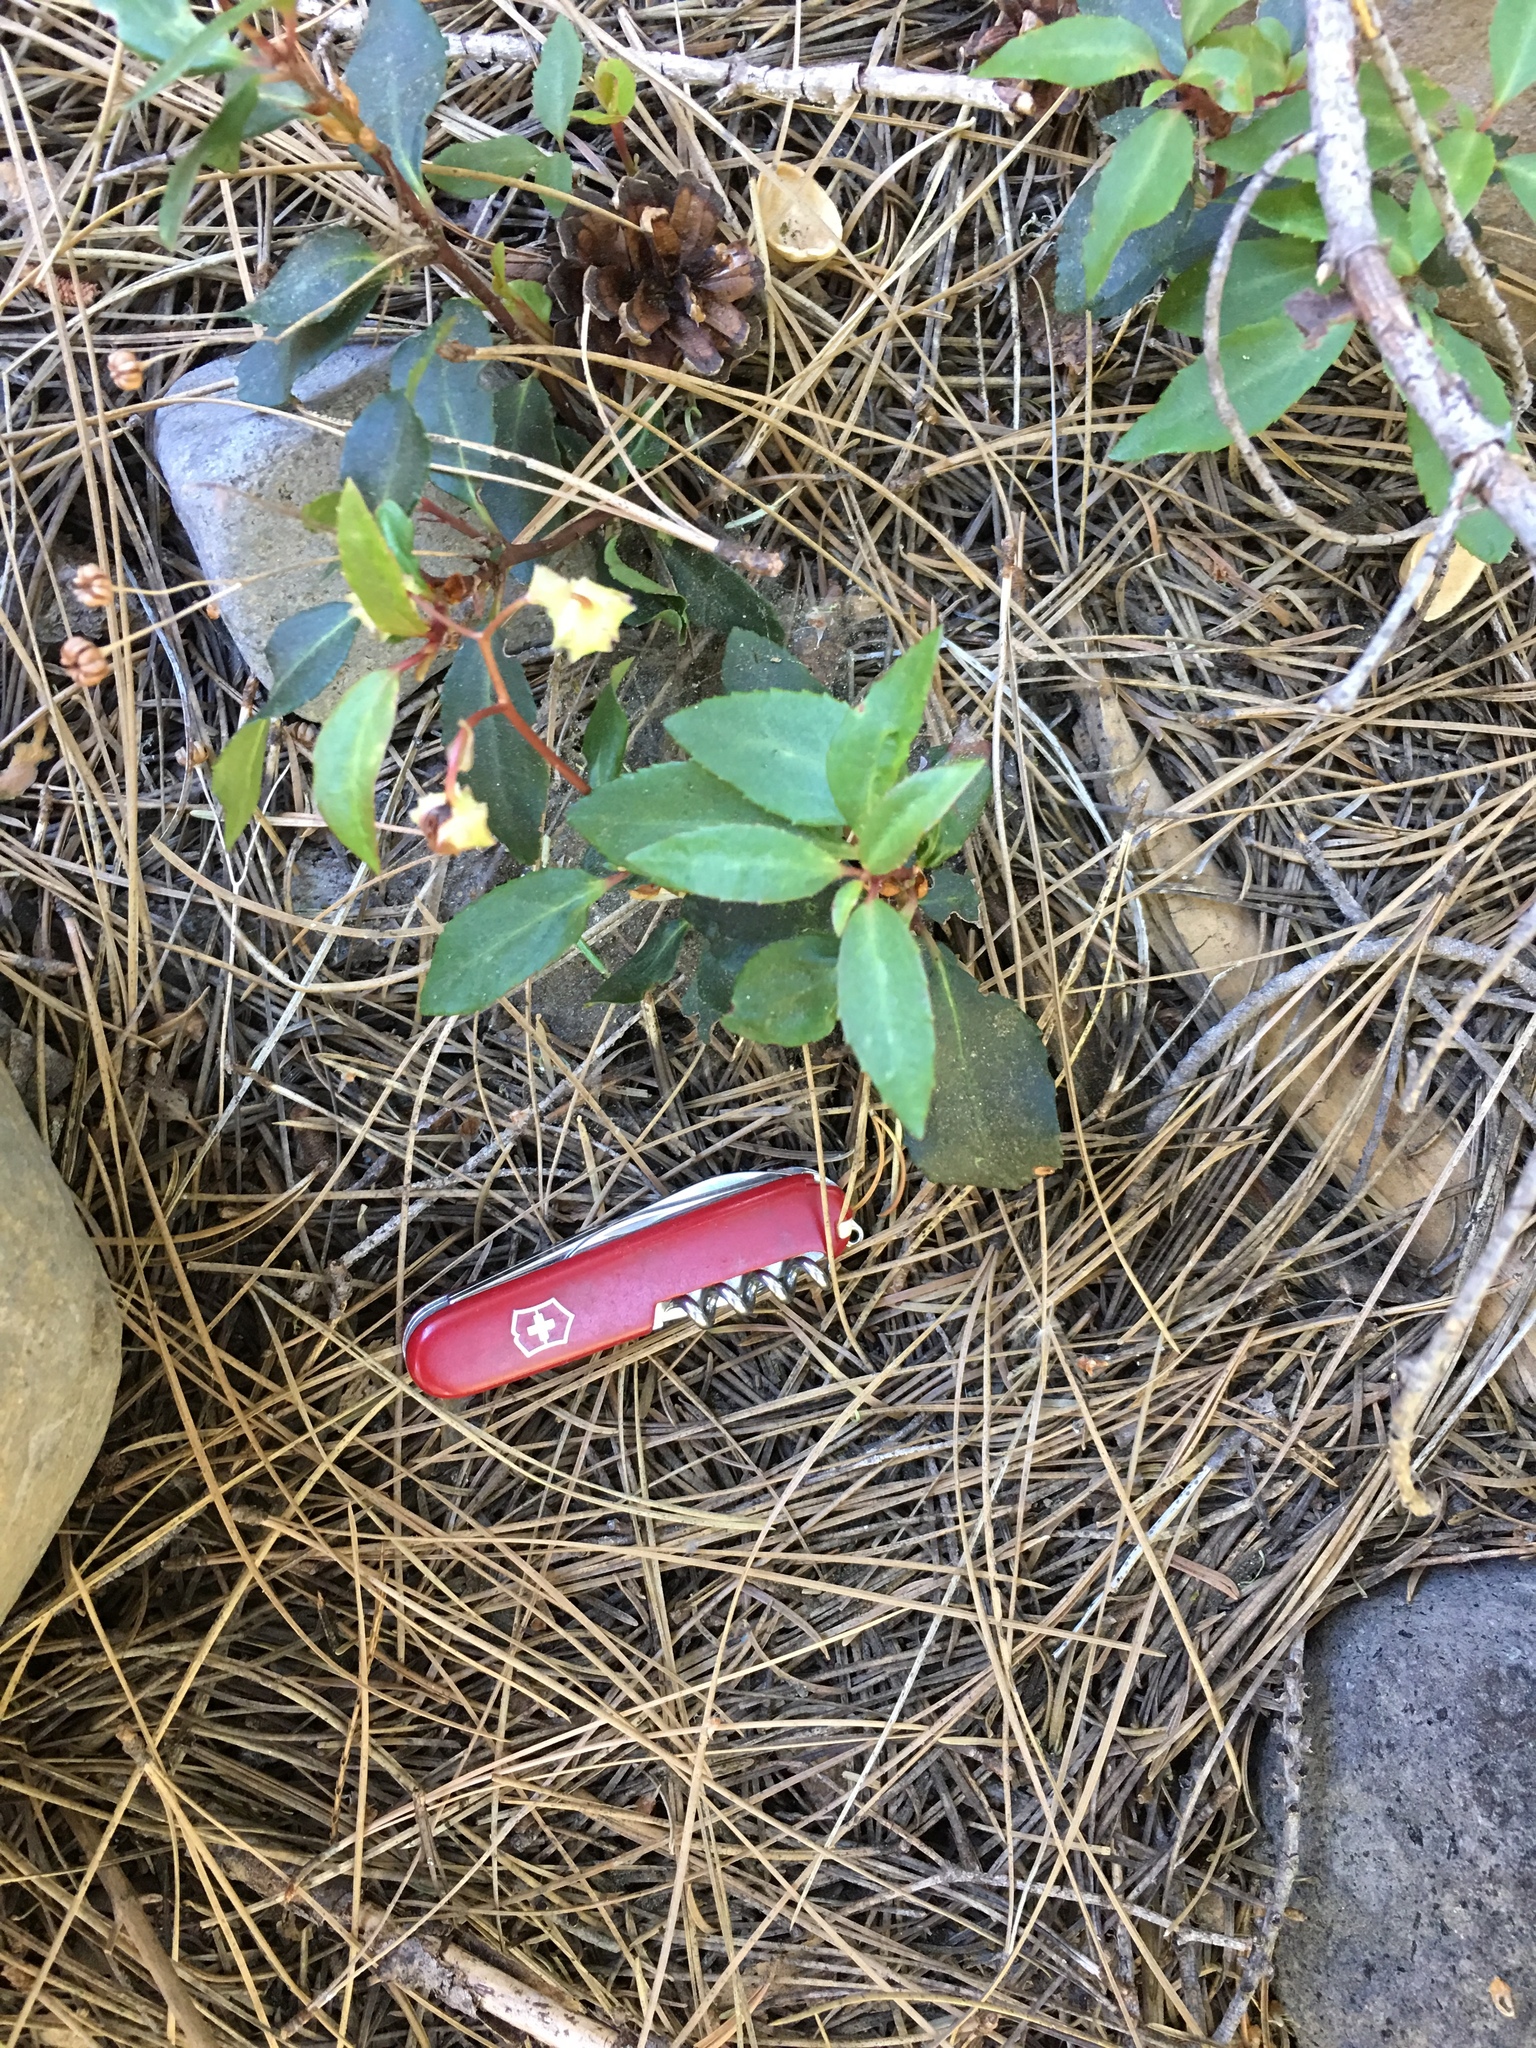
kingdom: Plantae
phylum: Tracheophyta
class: Magnoliopsida
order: Ericales
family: Ericaceae
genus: Chimaphila
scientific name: Chimaphila menziesii
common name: Menzies' pipsissewa
